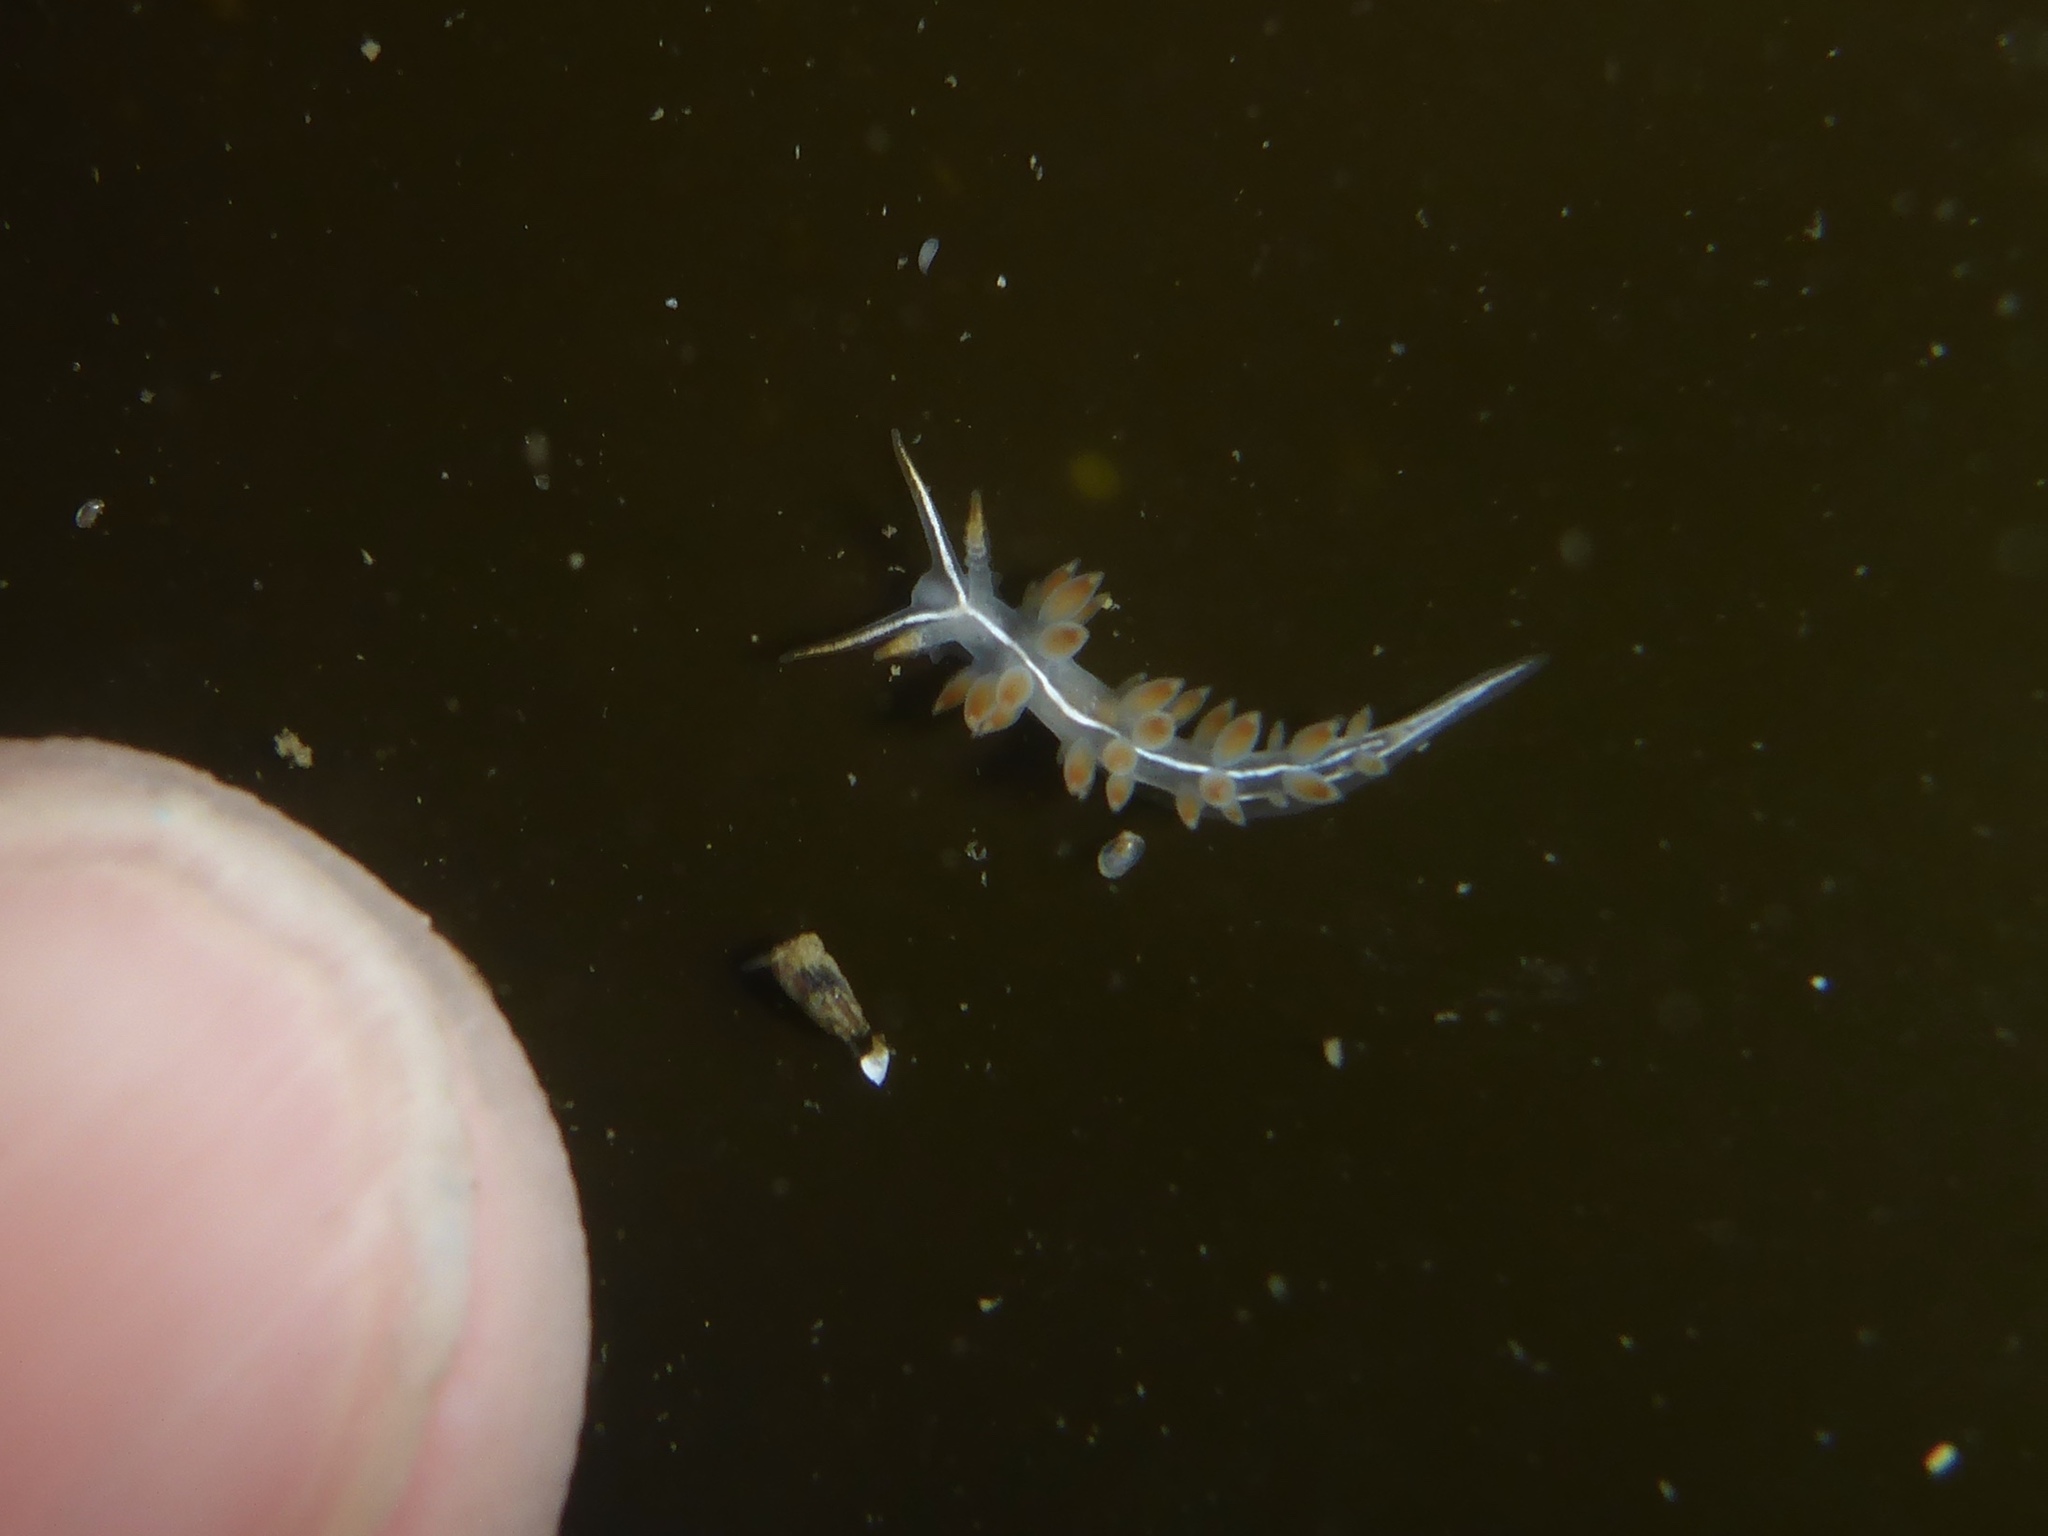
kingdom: Animalia
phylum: Mollusca
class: Gastropoda
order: Nudibranchia
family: Coryphellidae
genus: Coryphella
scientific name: Coryphella trilineata
